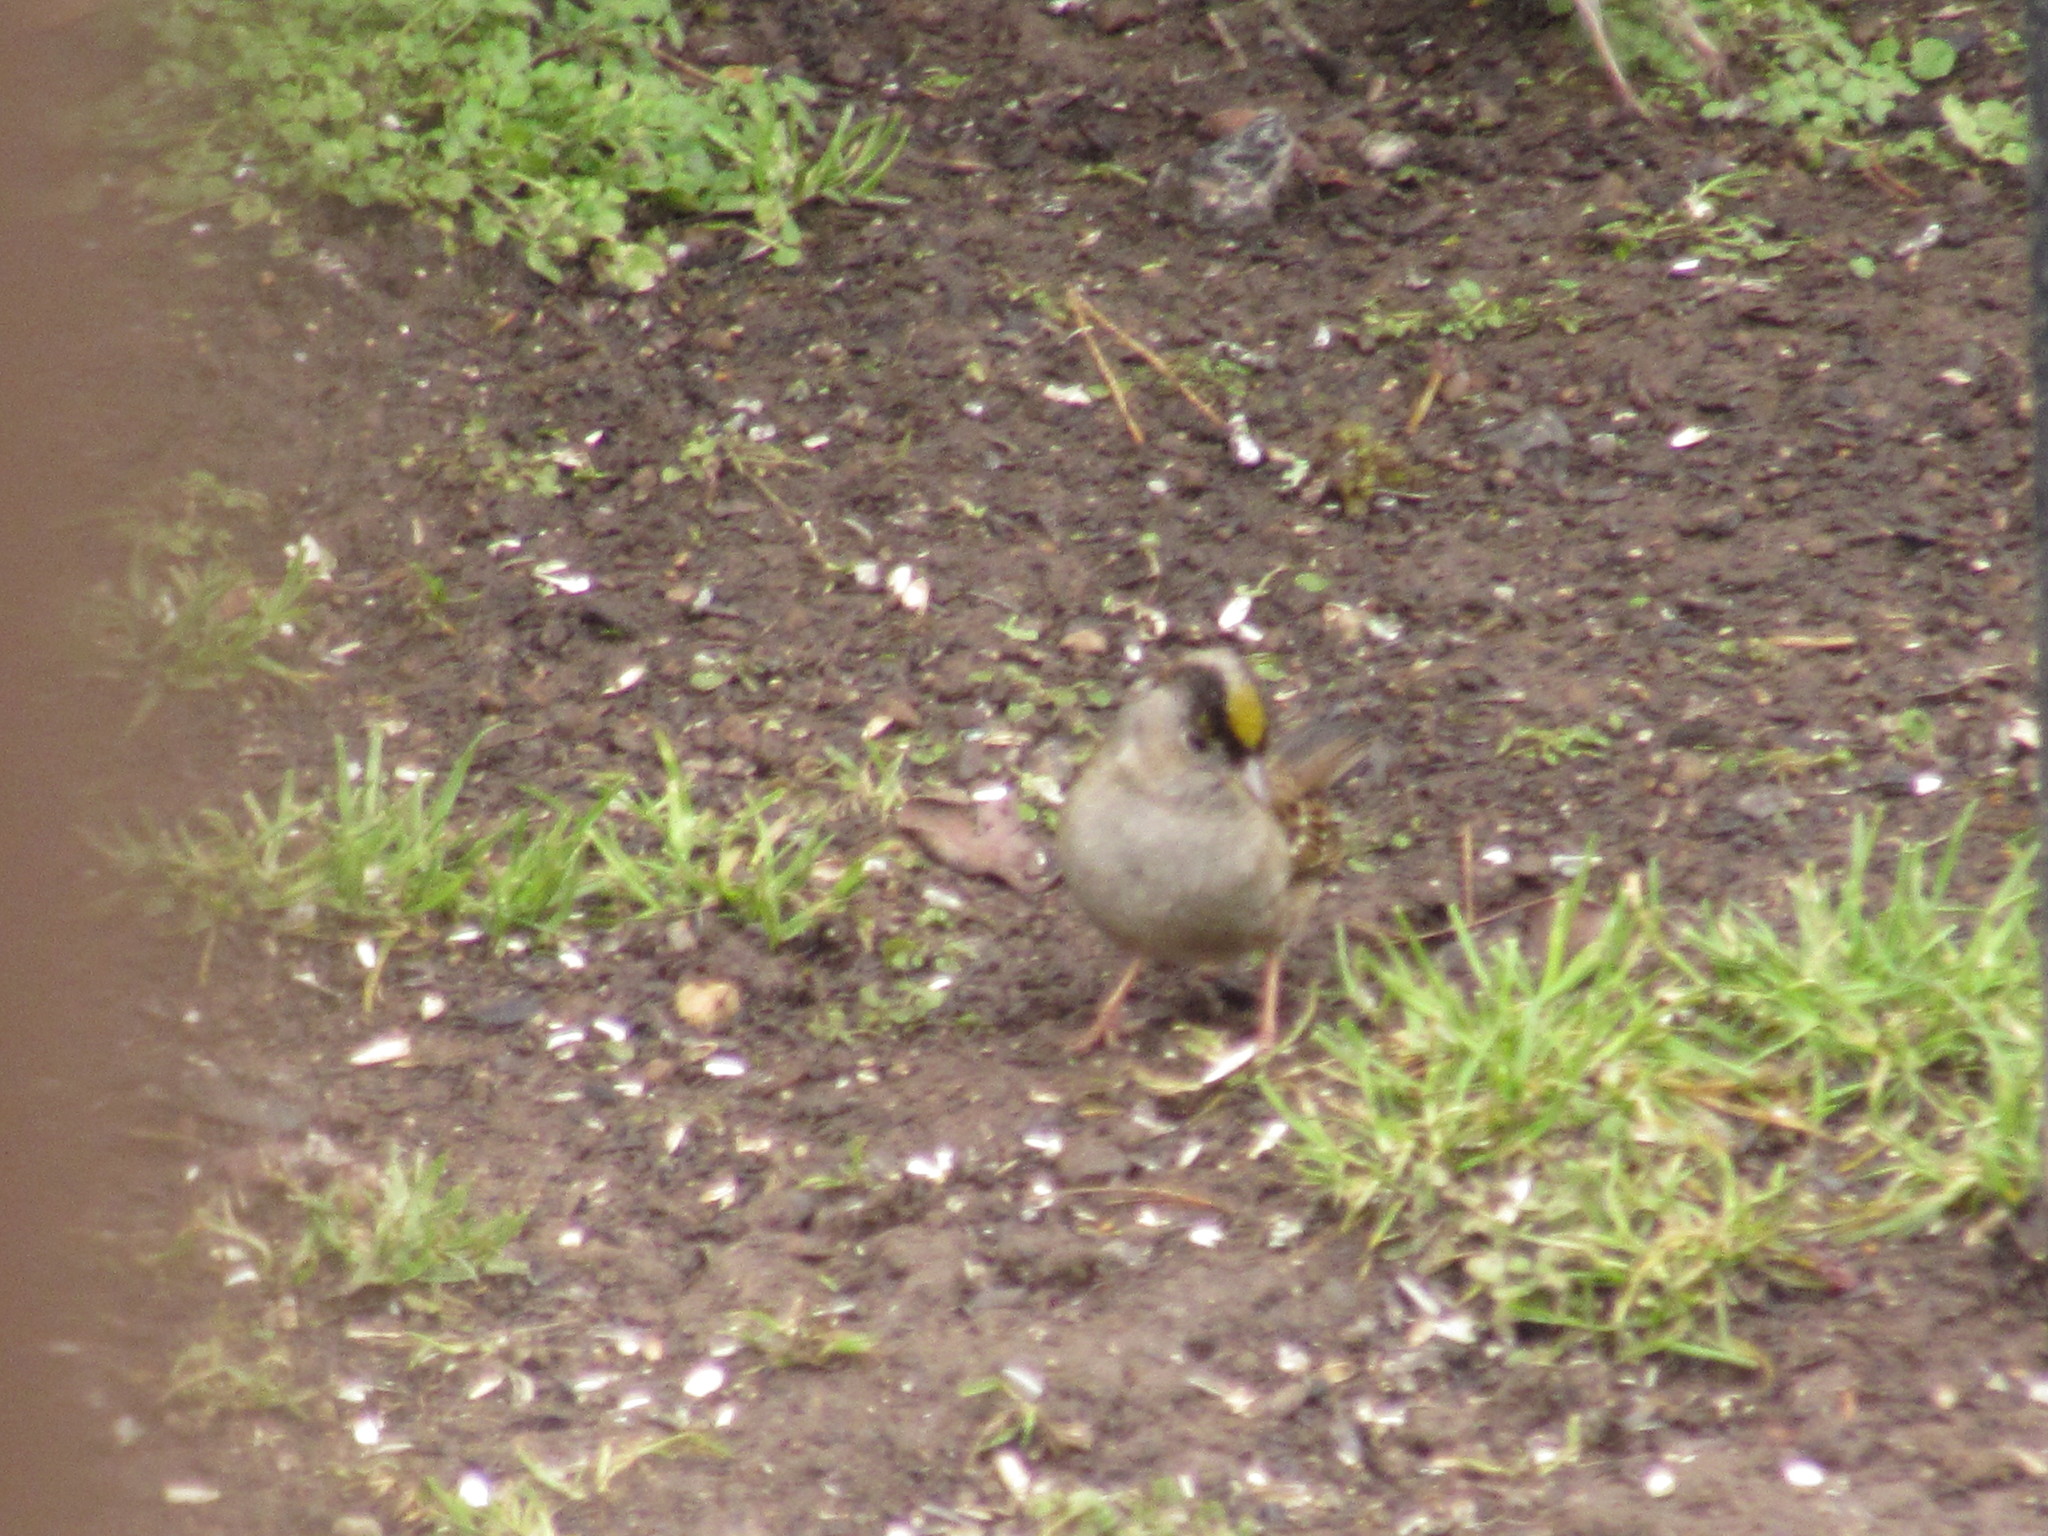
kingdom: Animalia
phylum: Chordata
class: Aves
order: Passeriformes
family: Passerellidae
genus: Zonotrichia
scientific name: Zonotrichia atricapilla
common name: Golden-crowned sparrow
